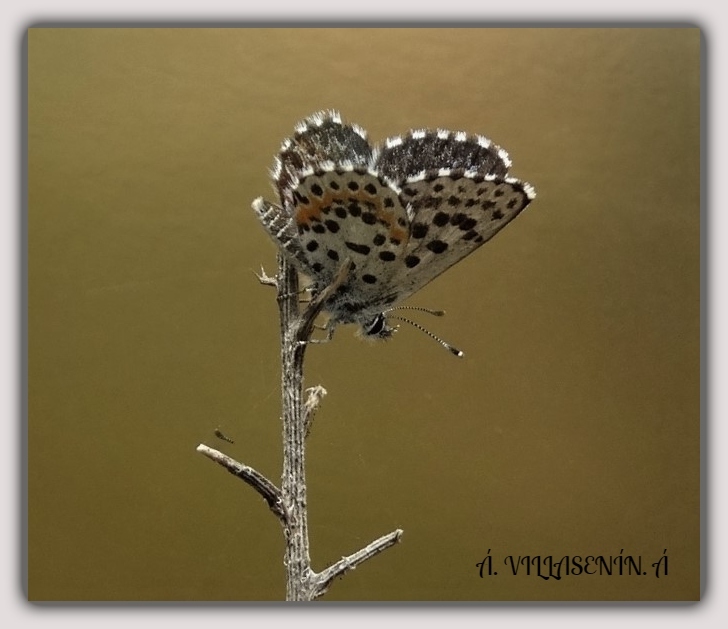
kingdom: Animalia
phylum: Arthropoda
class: Insecta
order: Lepidoptera
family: Lycaenidae
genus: Scolitantides
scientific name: Scolitantides orion
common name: Chequered blue
